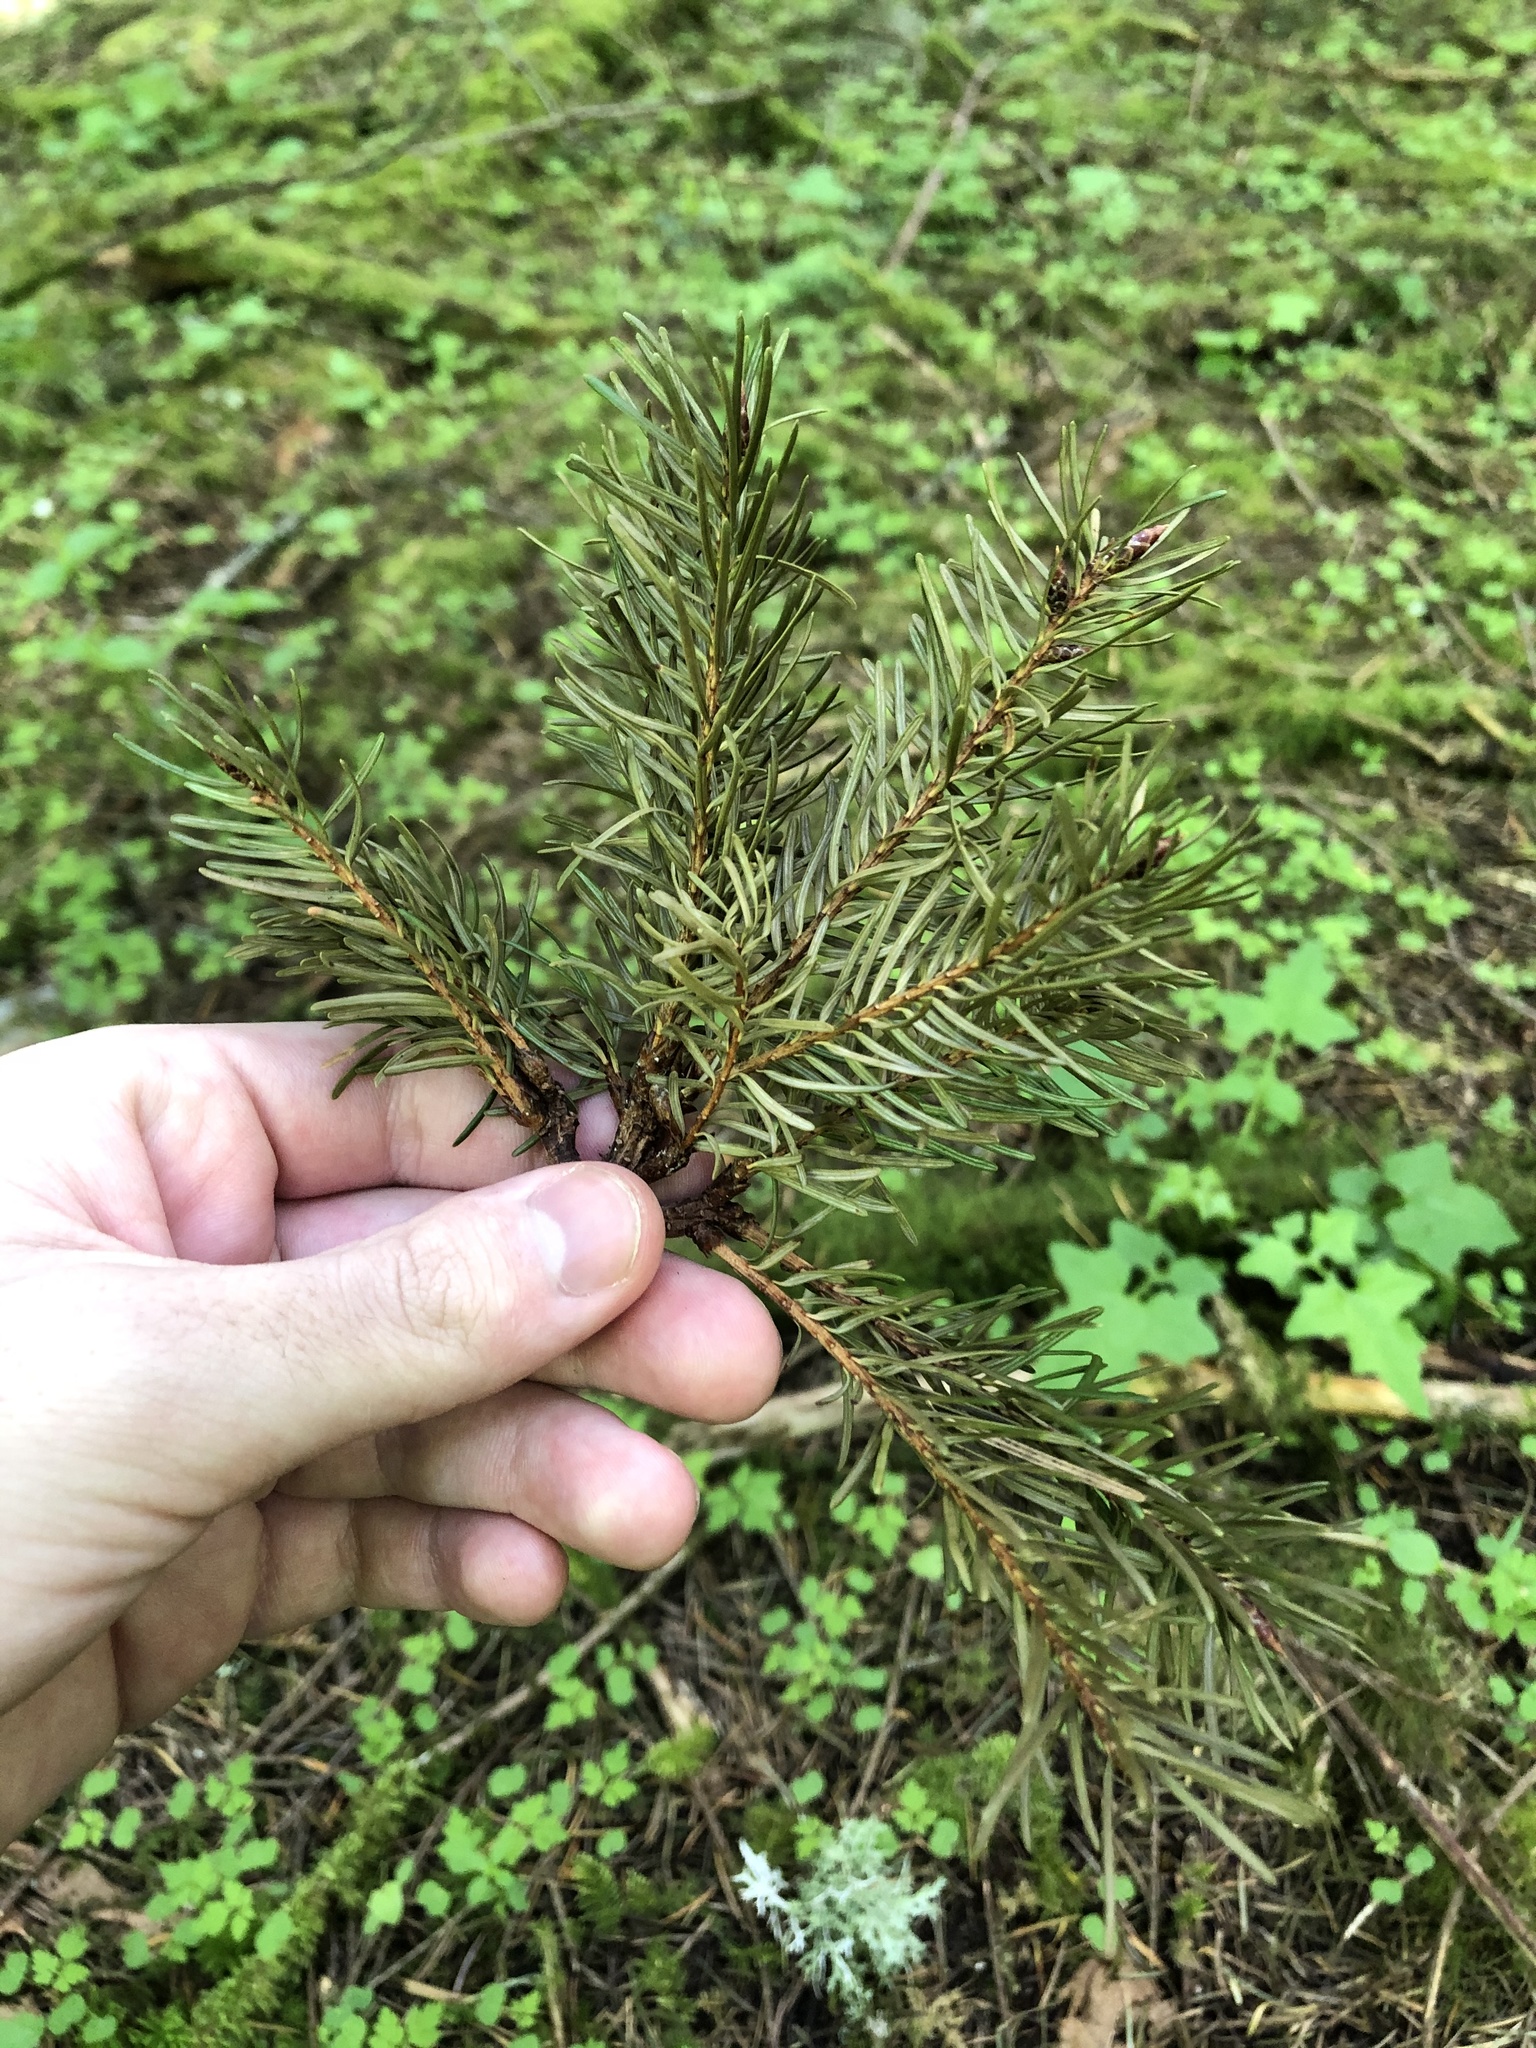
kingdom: Plantae
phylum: Tracheophyta
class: Pinopsida
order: Pinales
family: Pinaceae
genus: Pseudotsuga
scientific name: Pseudotsuga menziesii
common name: Douglas fir
